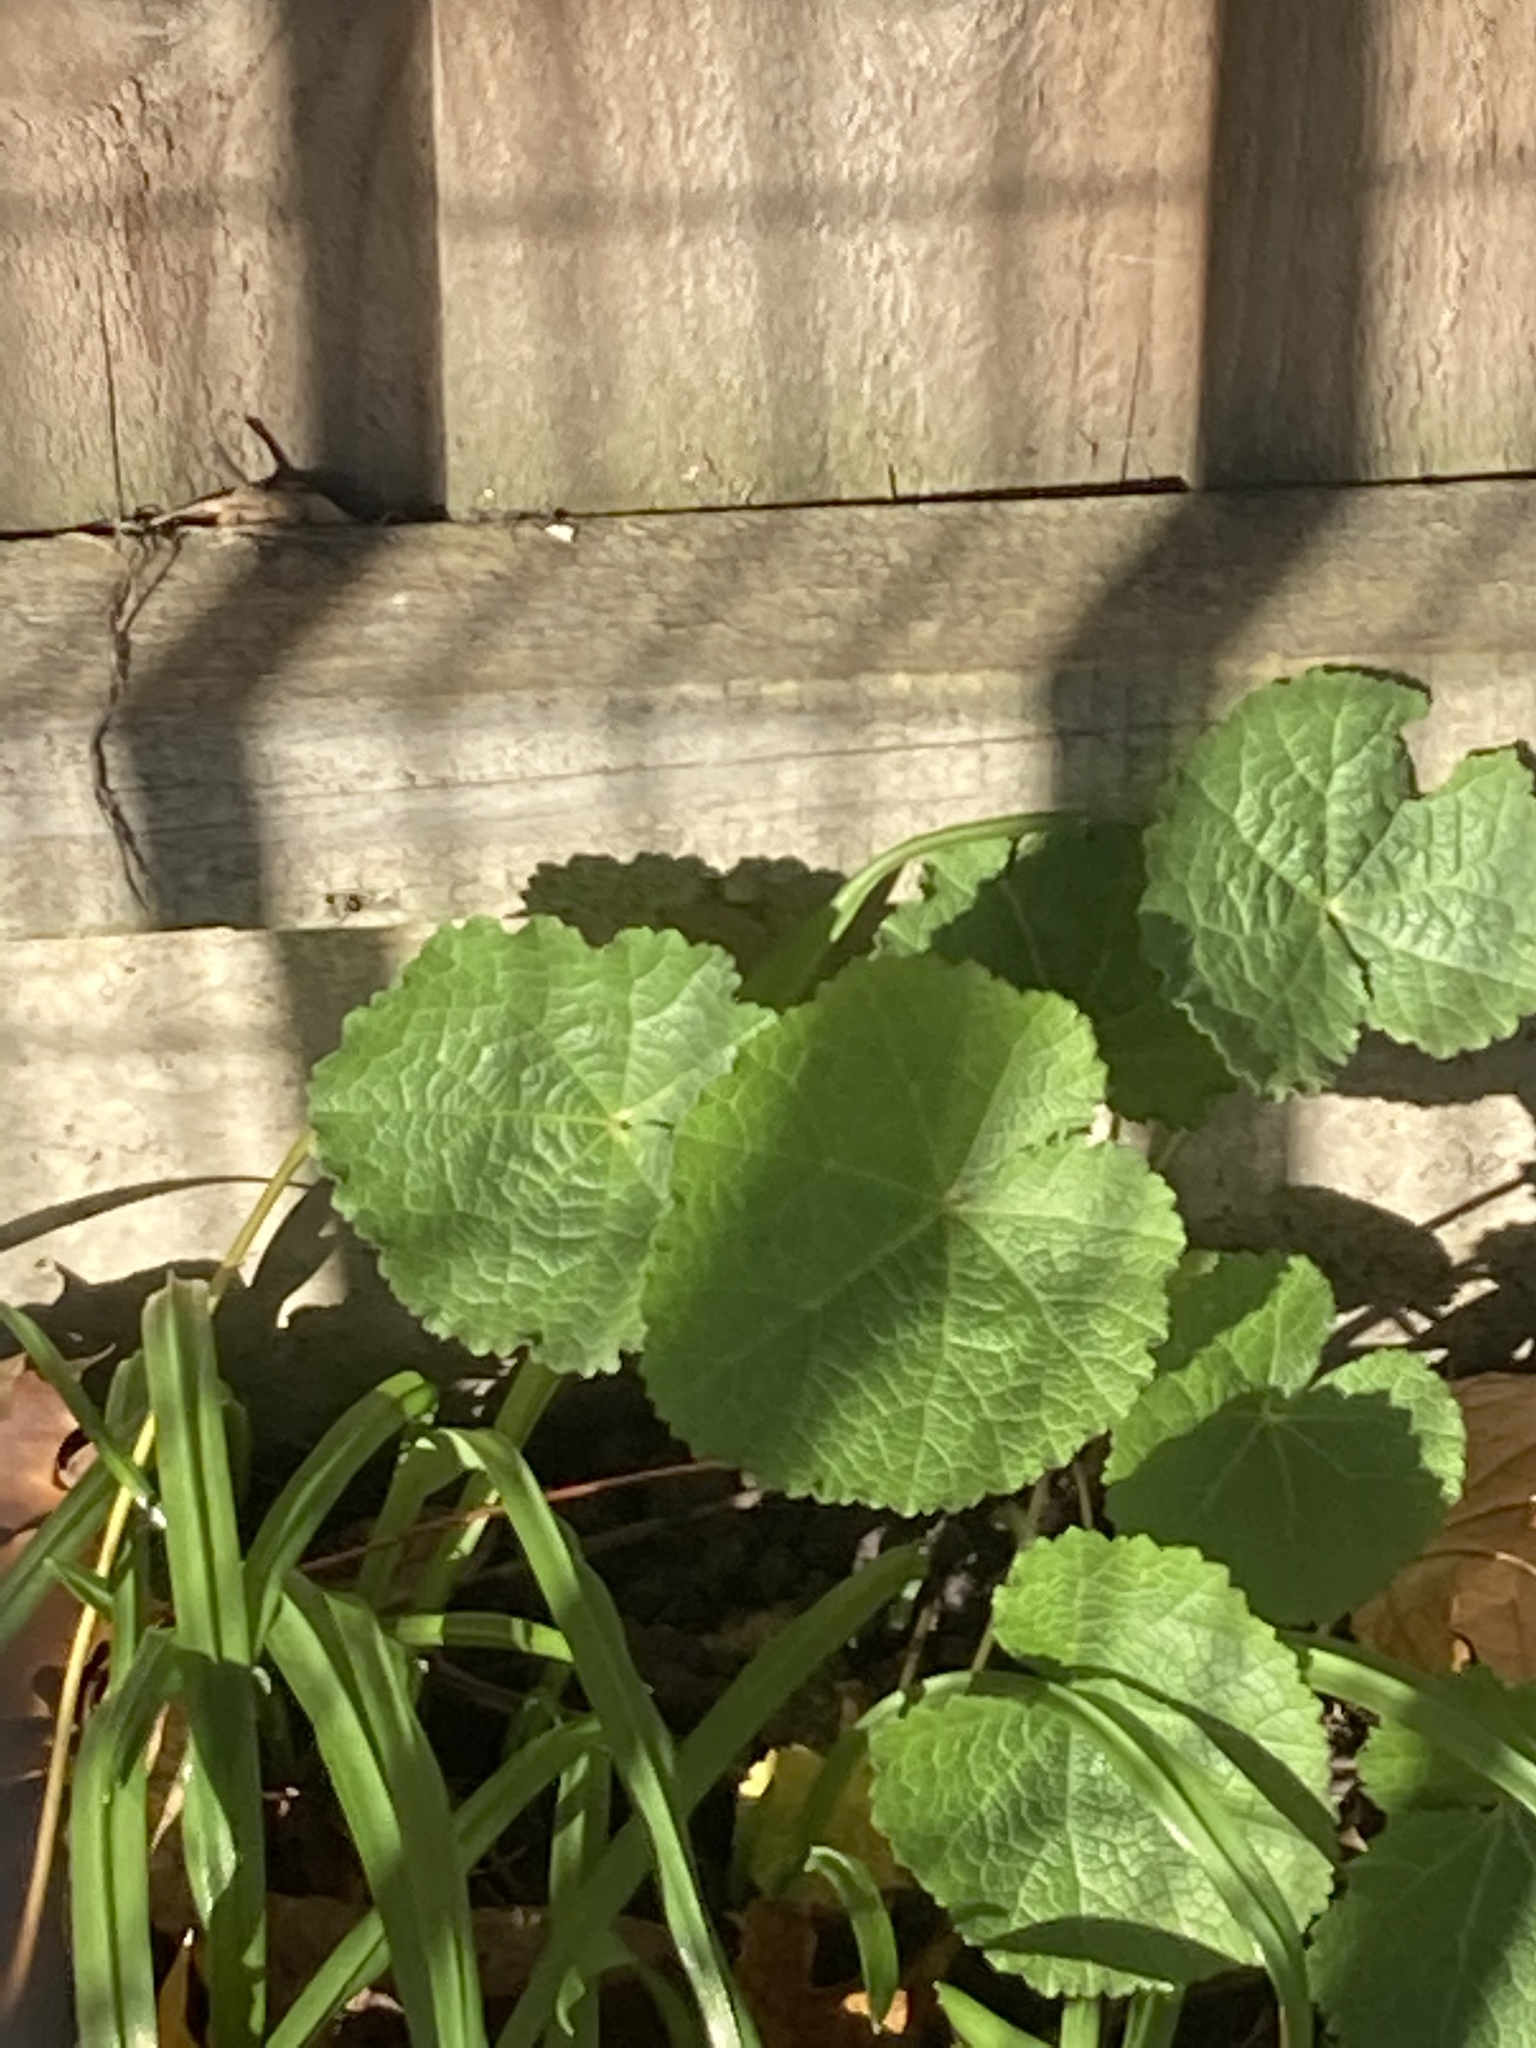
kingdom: Plantae
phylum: Tracheophyta
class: Magnoliopsida
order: Malvales
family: Malvaceae
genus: Alcea
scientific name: Alcea rosea
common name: Hollyhock
